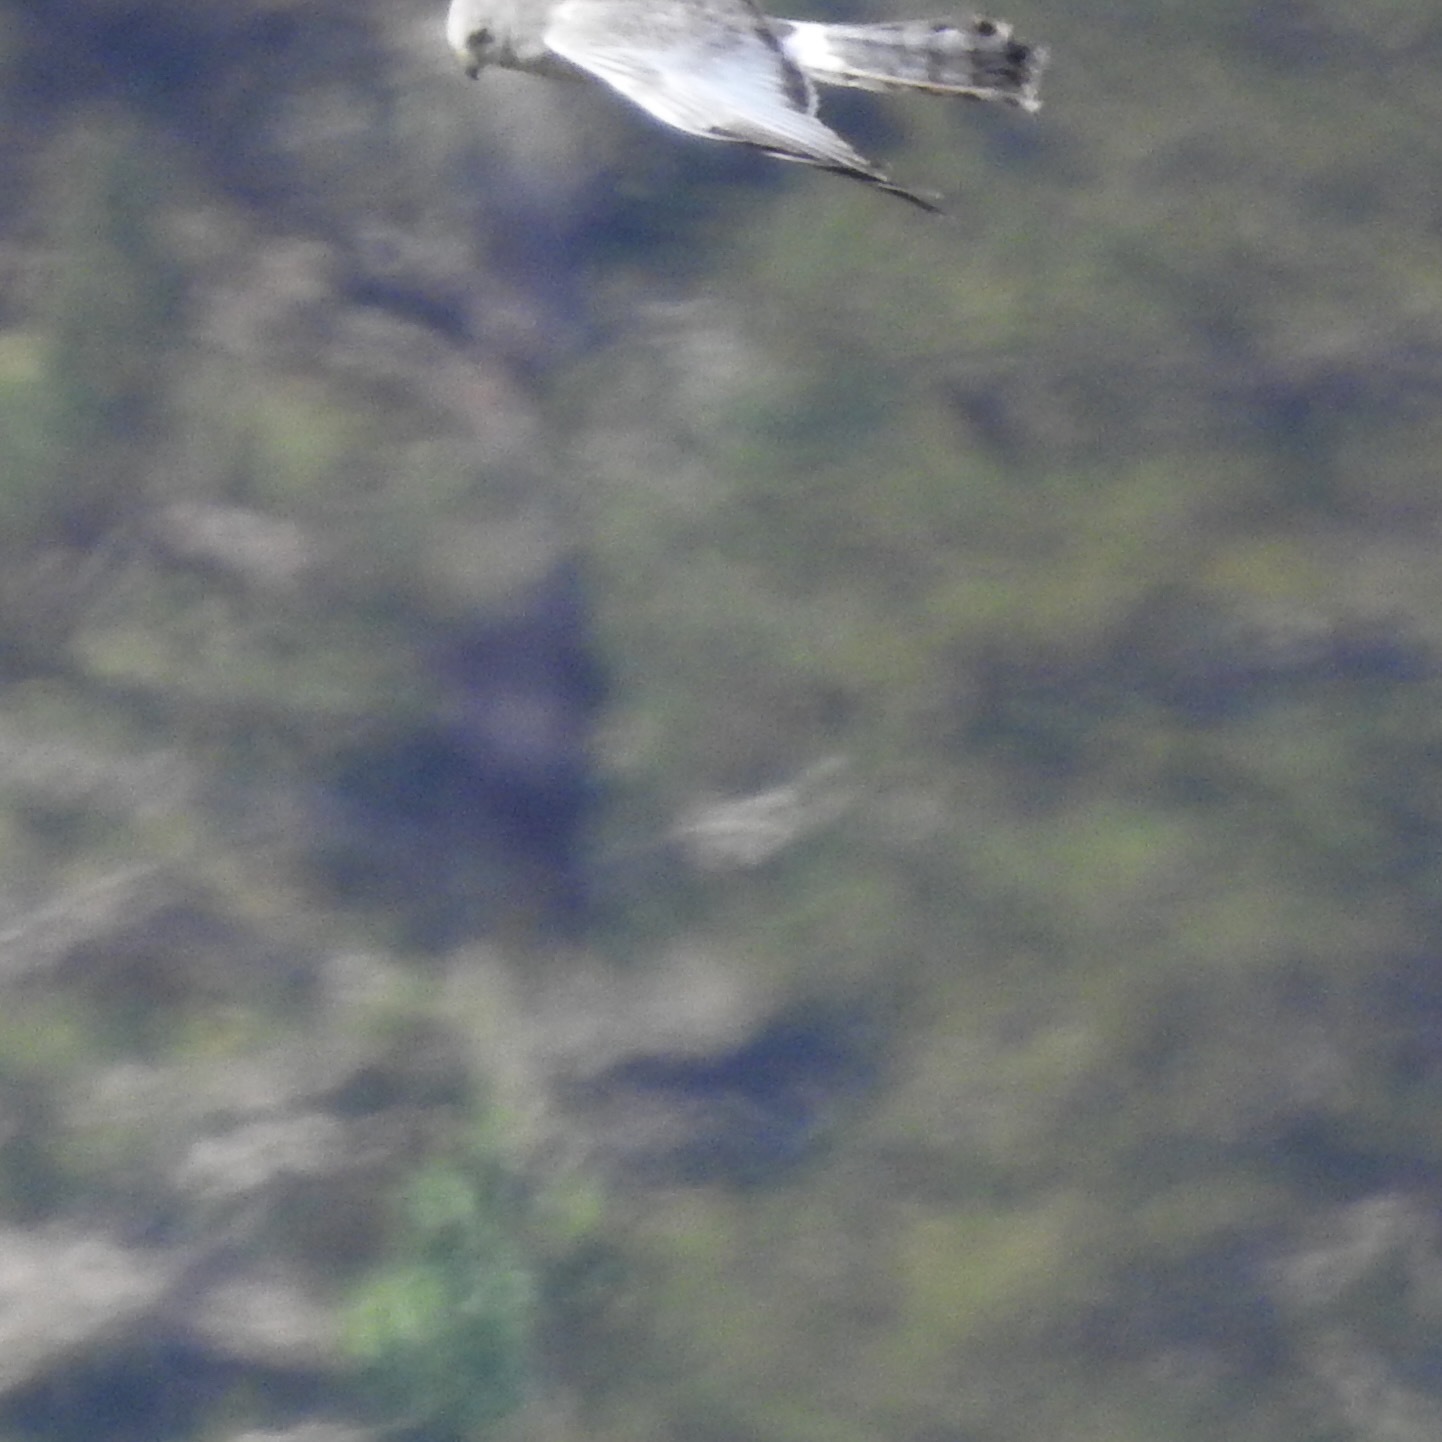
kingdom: Animalia
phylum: Chordata
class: Aves
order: Accipitriformes
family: Accipitridae
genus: Circus
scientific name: Circus cyaneus
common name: Hen harrier
